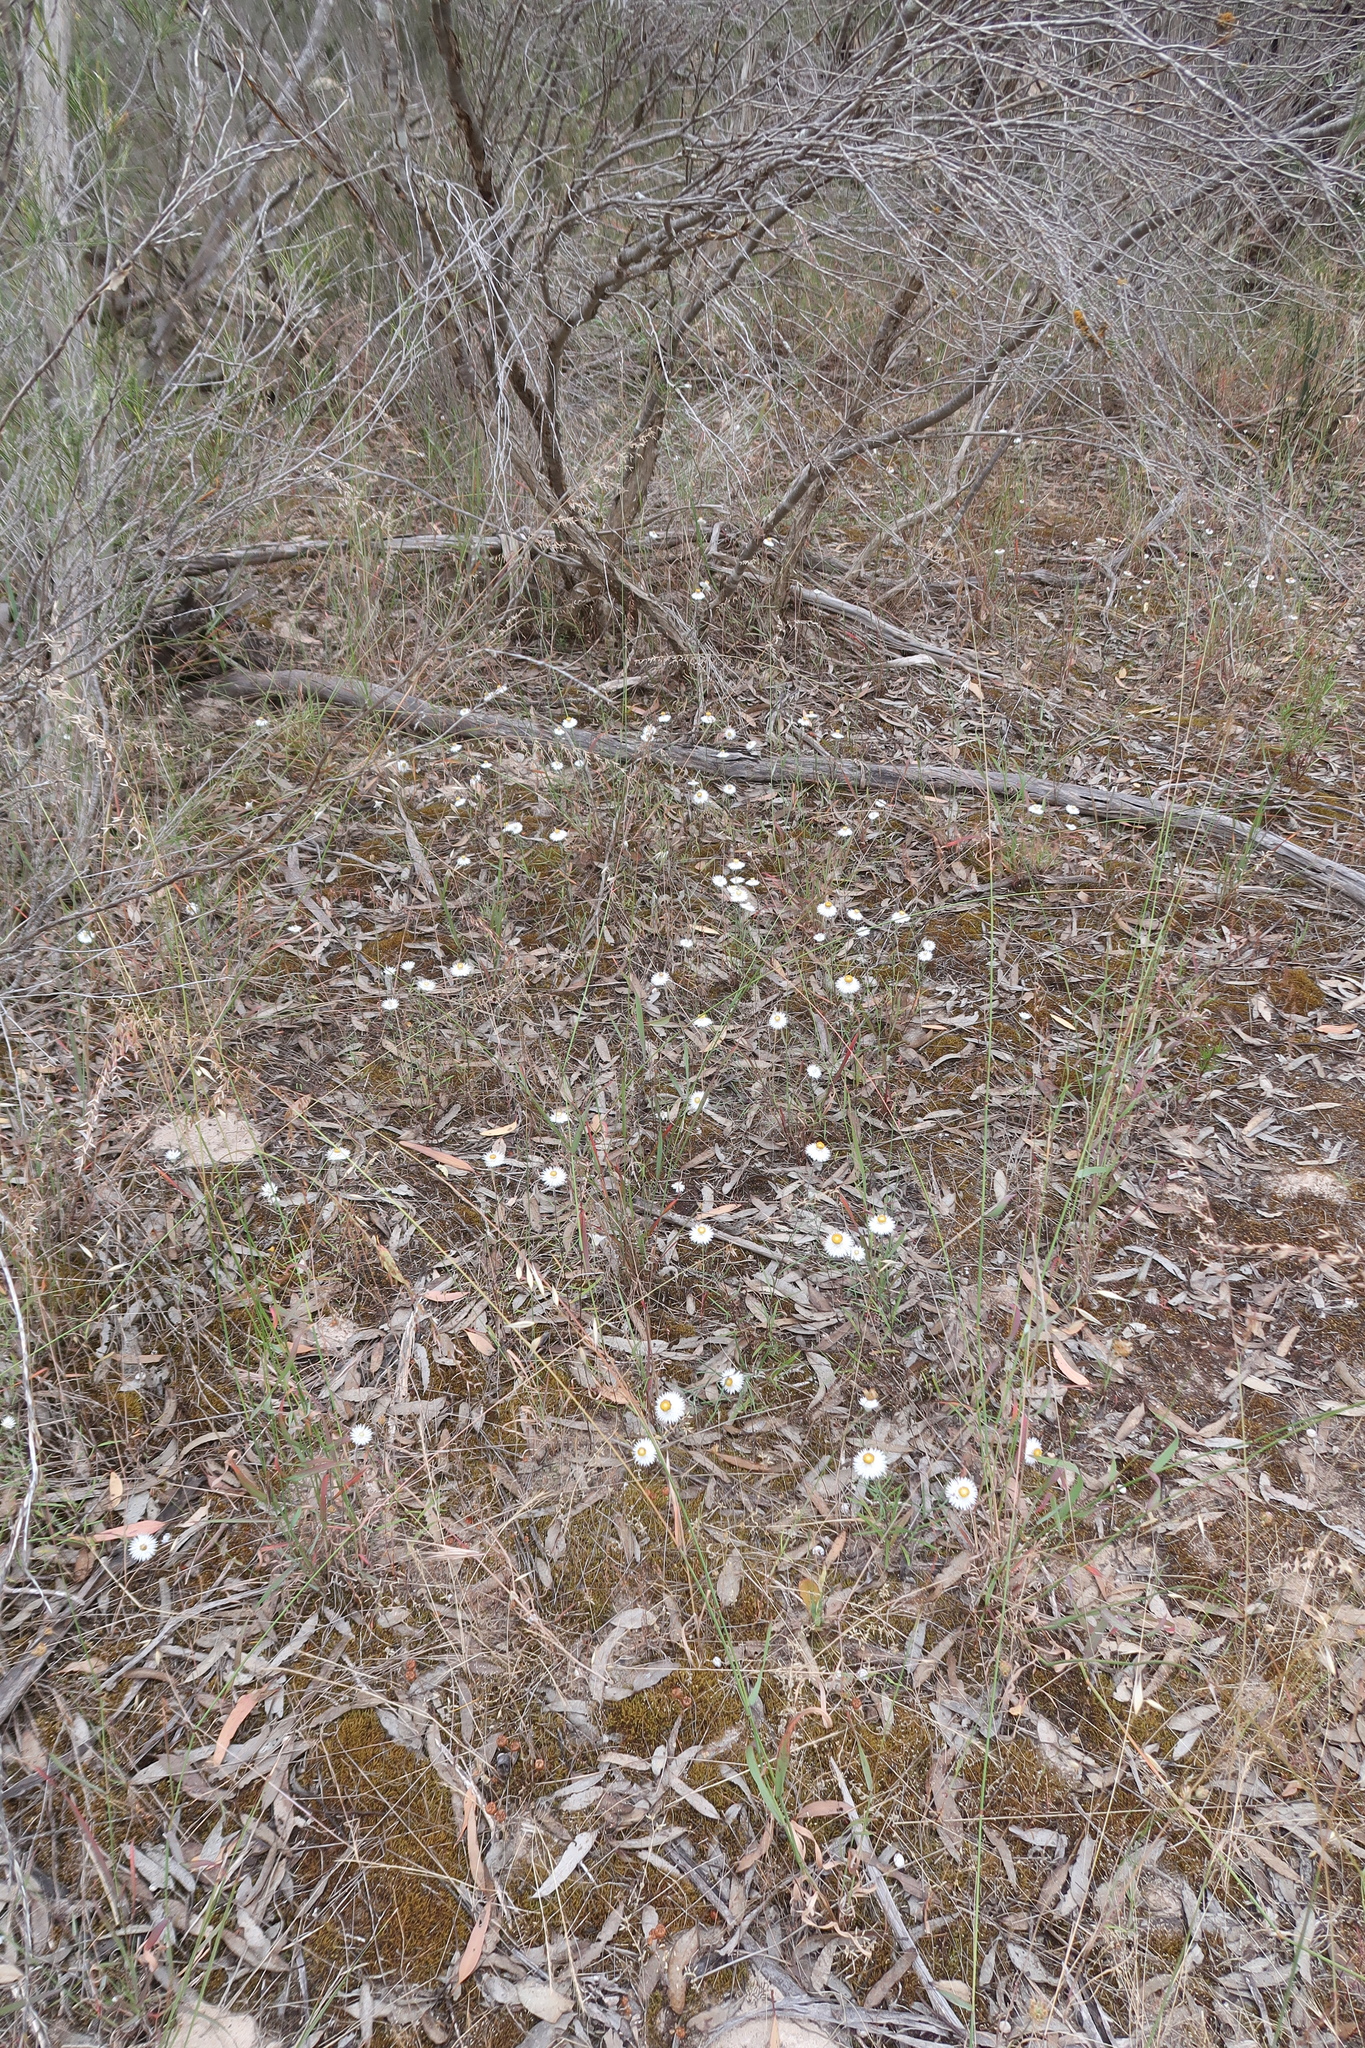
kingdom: Plantae
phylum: Tracheophyta
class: Magnoliopsida
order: Asterales
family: Asteraceae
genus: Helichrysum
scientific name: Helichrysum leucopsideum
